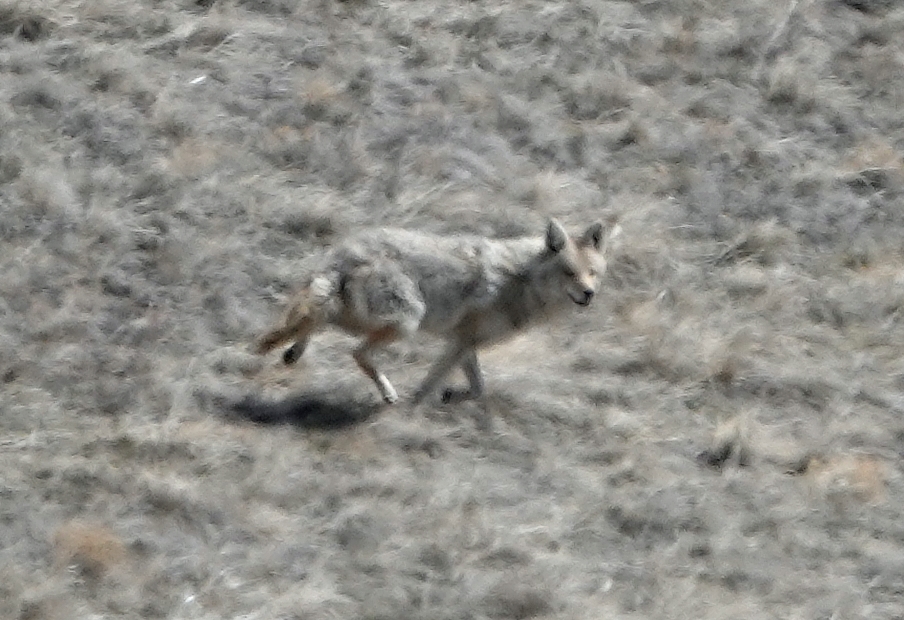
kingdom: Animalia
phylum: Chordata
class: Mammalia
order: Carnivora
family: Canidae
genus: Canis
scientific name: Canis latrans
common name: Coyote
